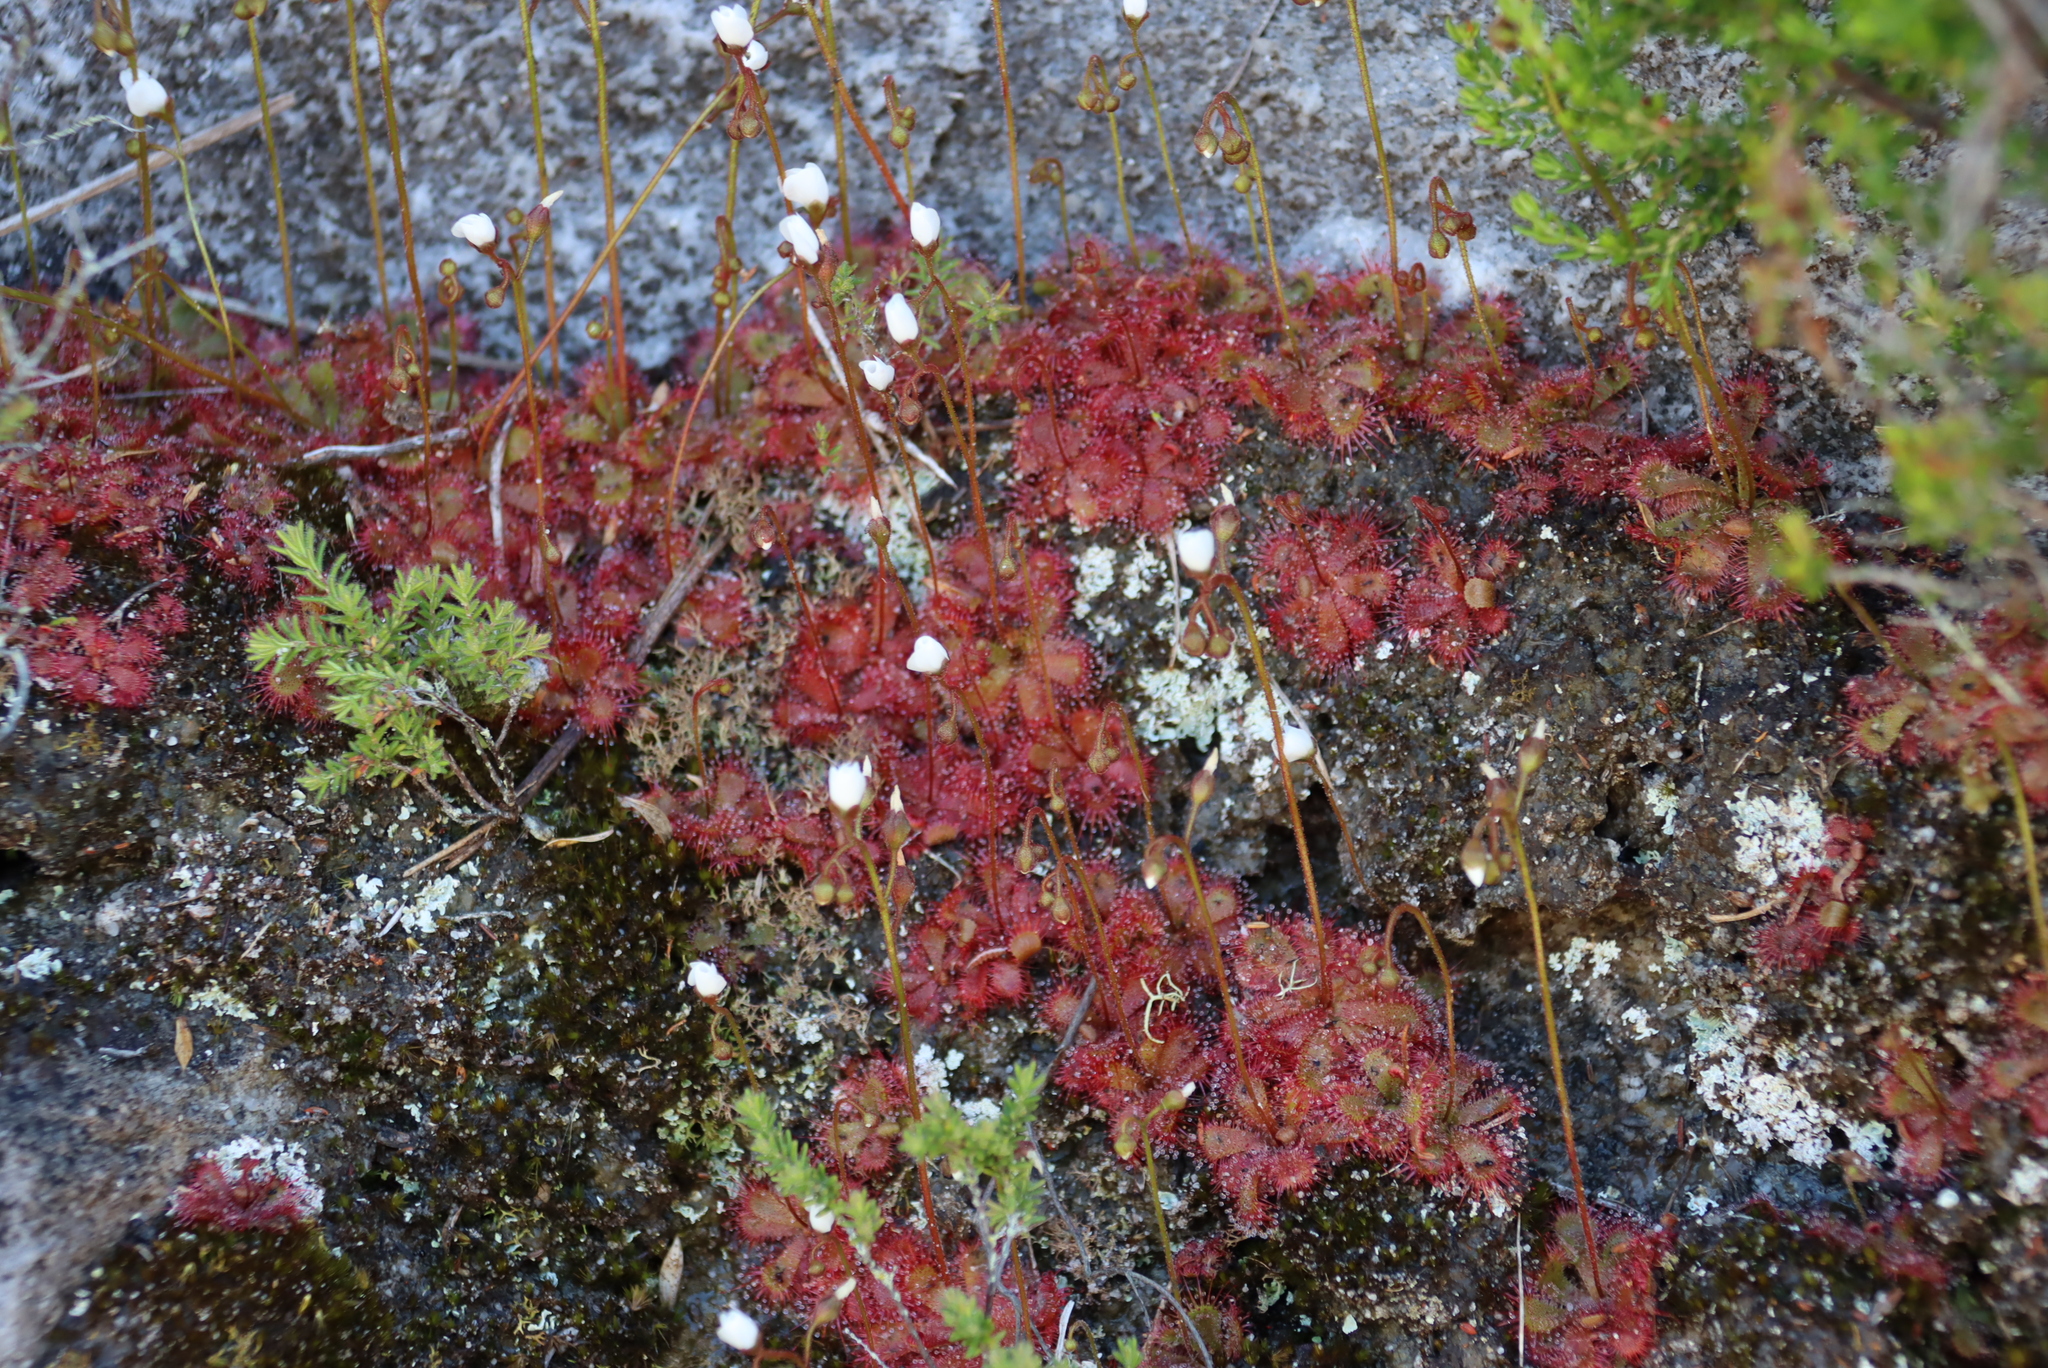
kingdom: Plantae
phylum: Tracheophyta
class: Magnoliopsida
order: Caryophyllales
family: Droseraceae
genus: Drosera
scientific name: Drosera trinervia
